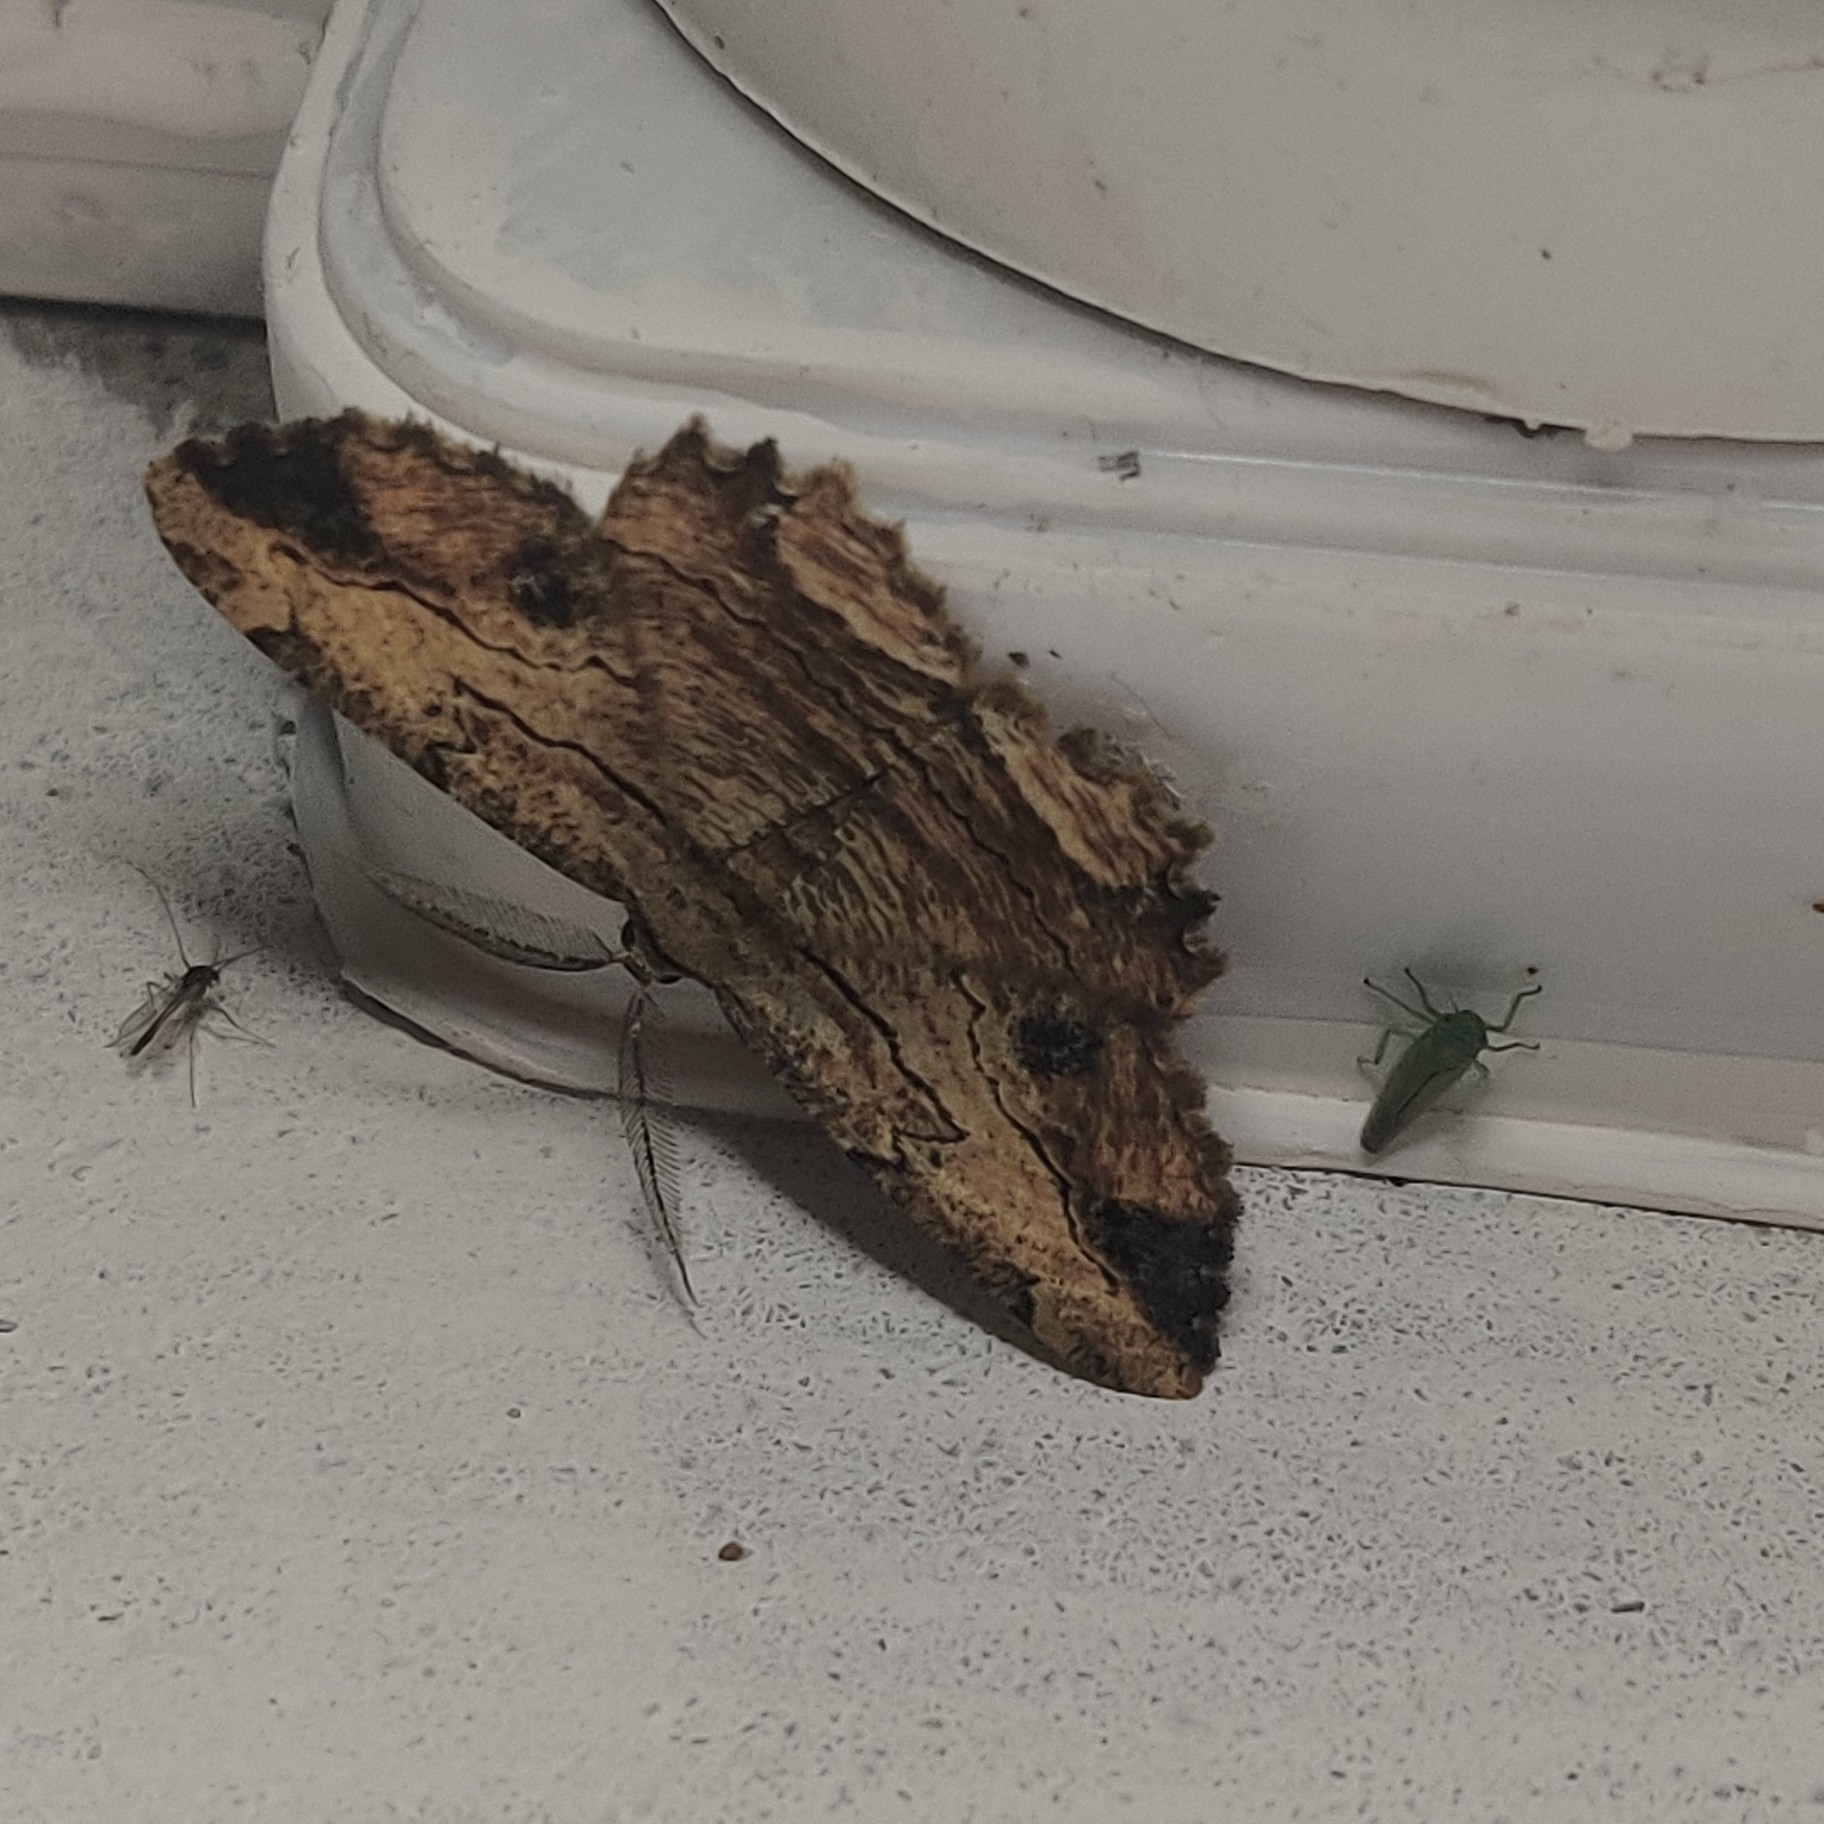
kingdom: Animalia
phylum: Arthropoda
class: Insecta
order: Lepidoptera
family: Geometridae
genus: Menophra
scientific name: Menophra subplagiata
